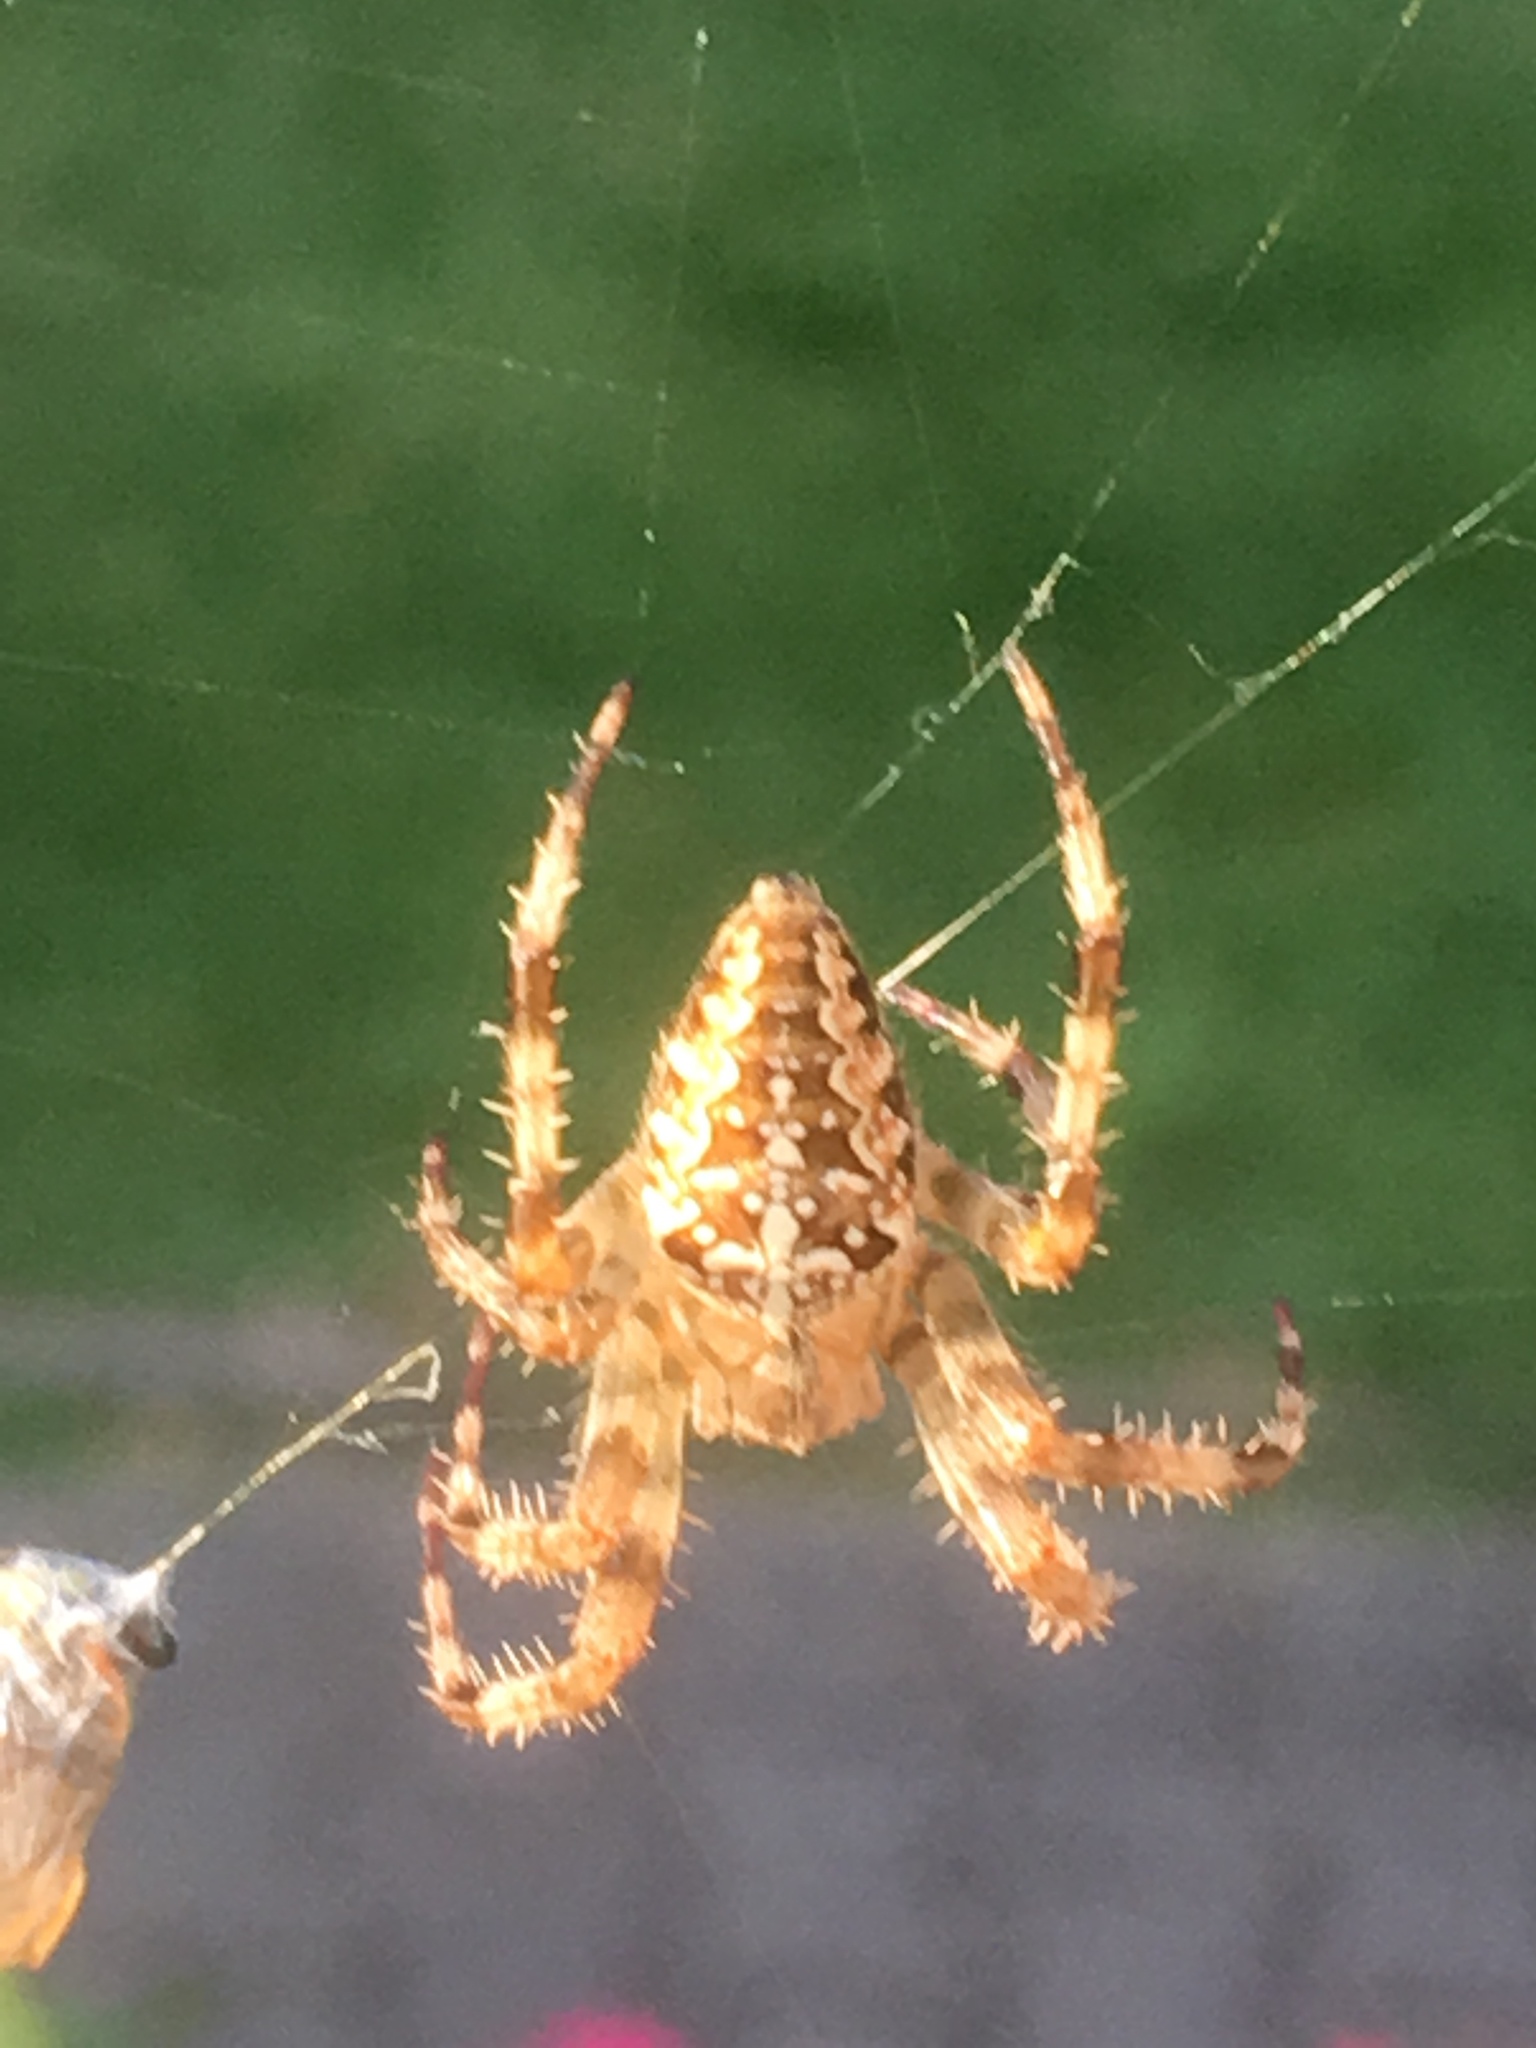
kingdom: Animalia
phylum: Arthropoda
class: Arachnida
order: Araneae
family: Araneidae
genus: Araneus
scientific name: Araneus diadematus
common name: Cross orbweaver
